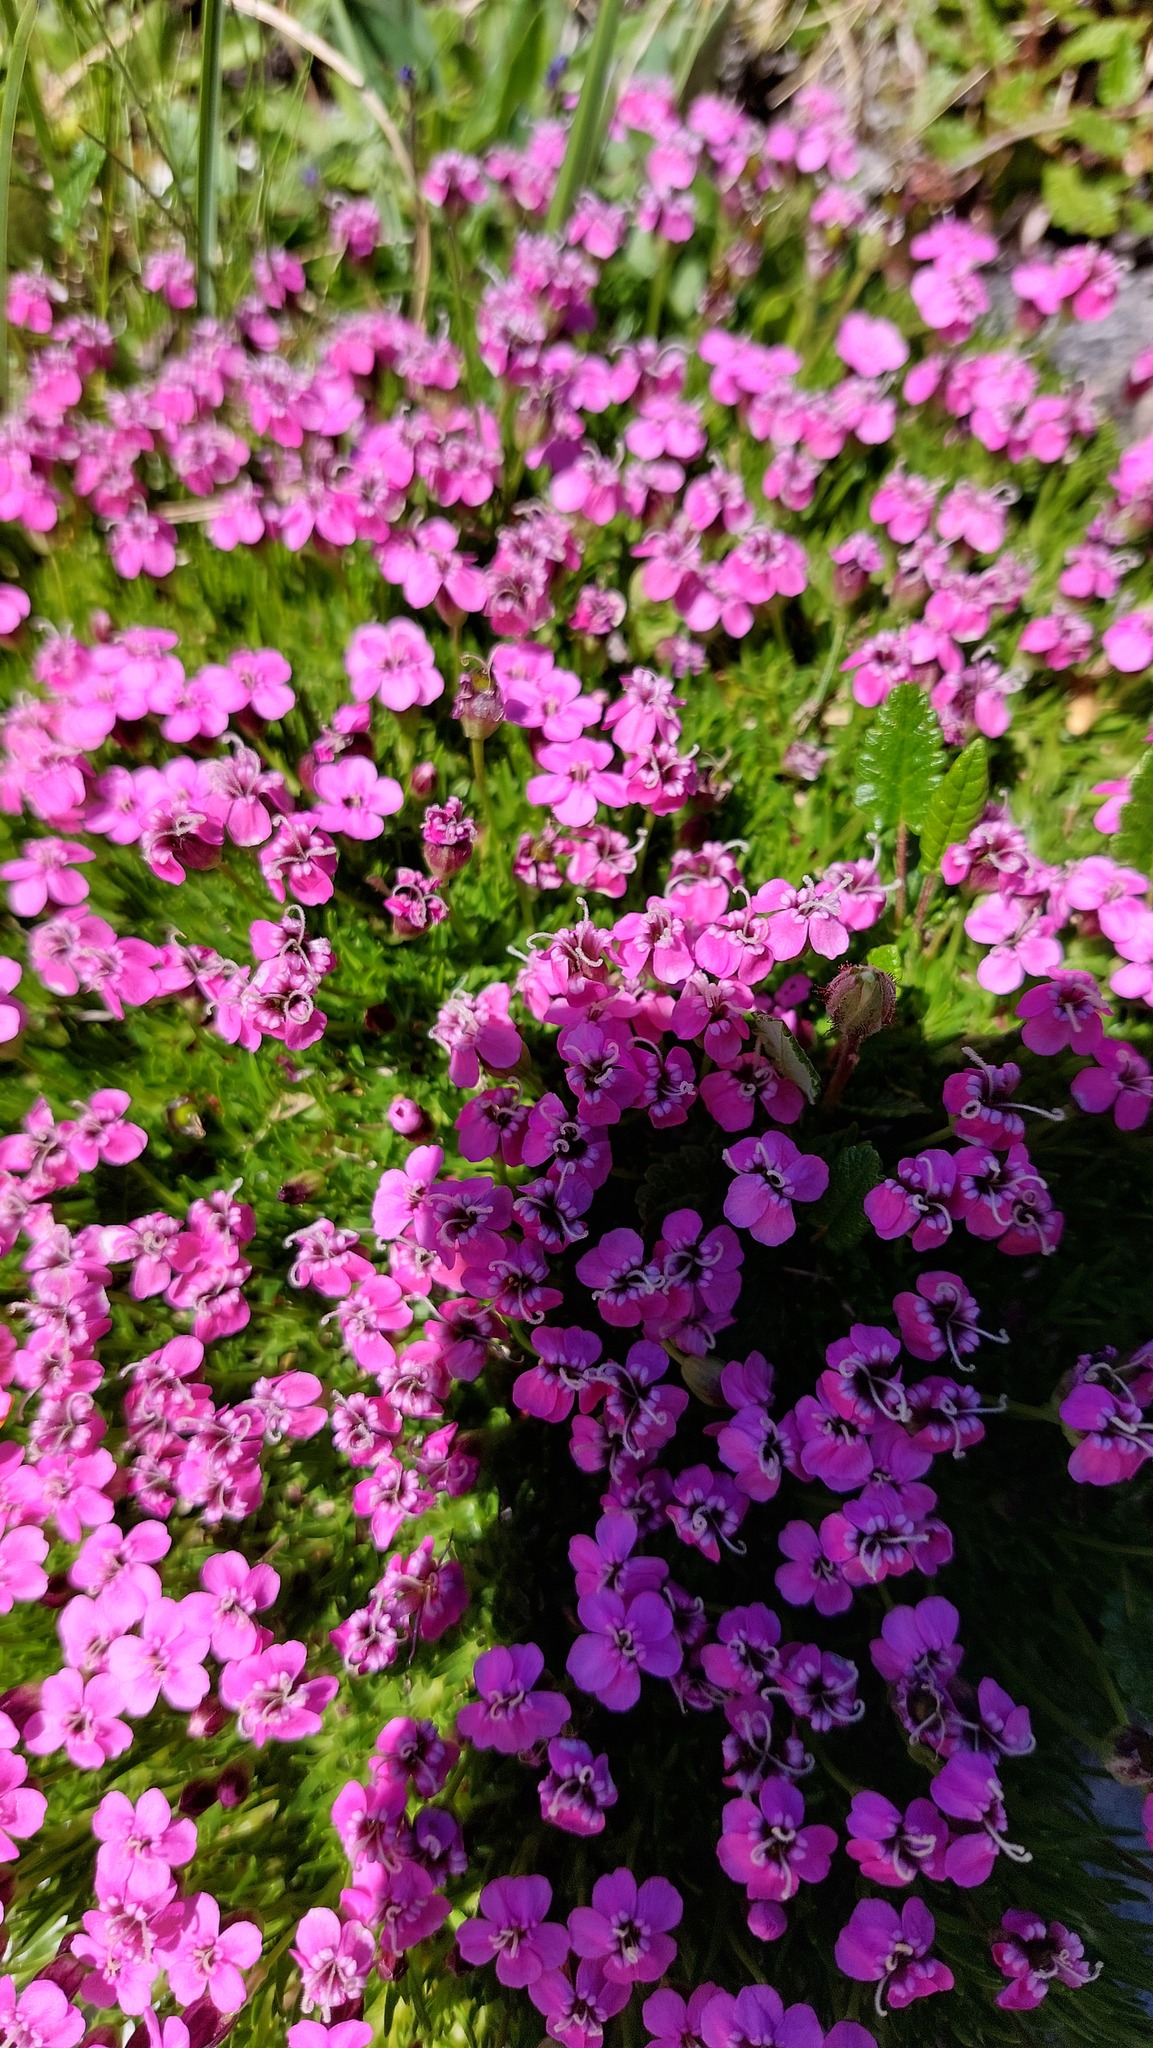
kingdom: Plantae
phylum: Tracheophyta
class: Magnoliopsida
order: Caryophyllales
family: Caryophyllaceae
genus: Silene
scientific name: Silene acaulis
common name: Moss campion
